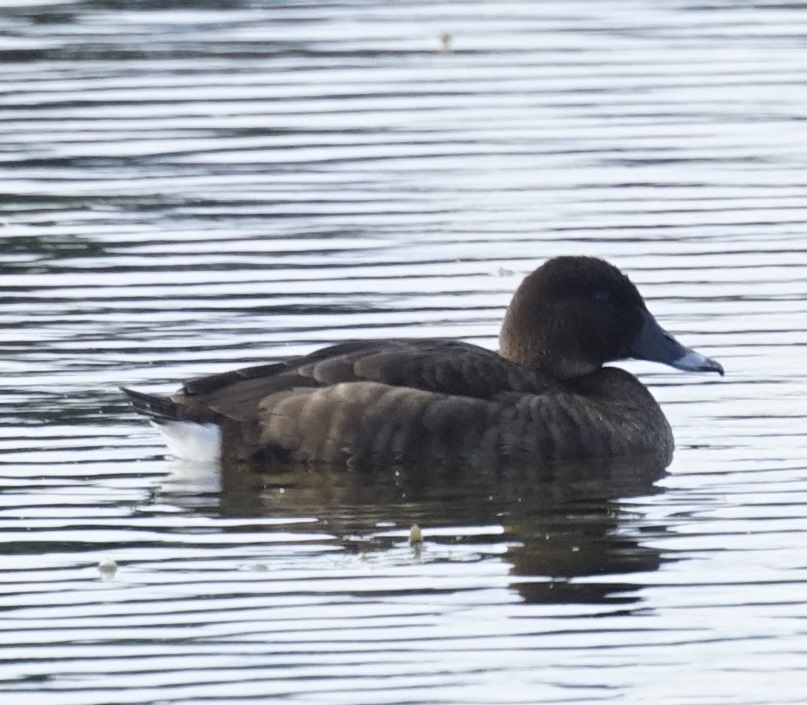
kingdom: Animalia
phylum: Chordata
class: Aves
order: Anseriformes
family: Anatidae
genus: Aythya
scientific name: Aythya australis
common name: Hardhead
